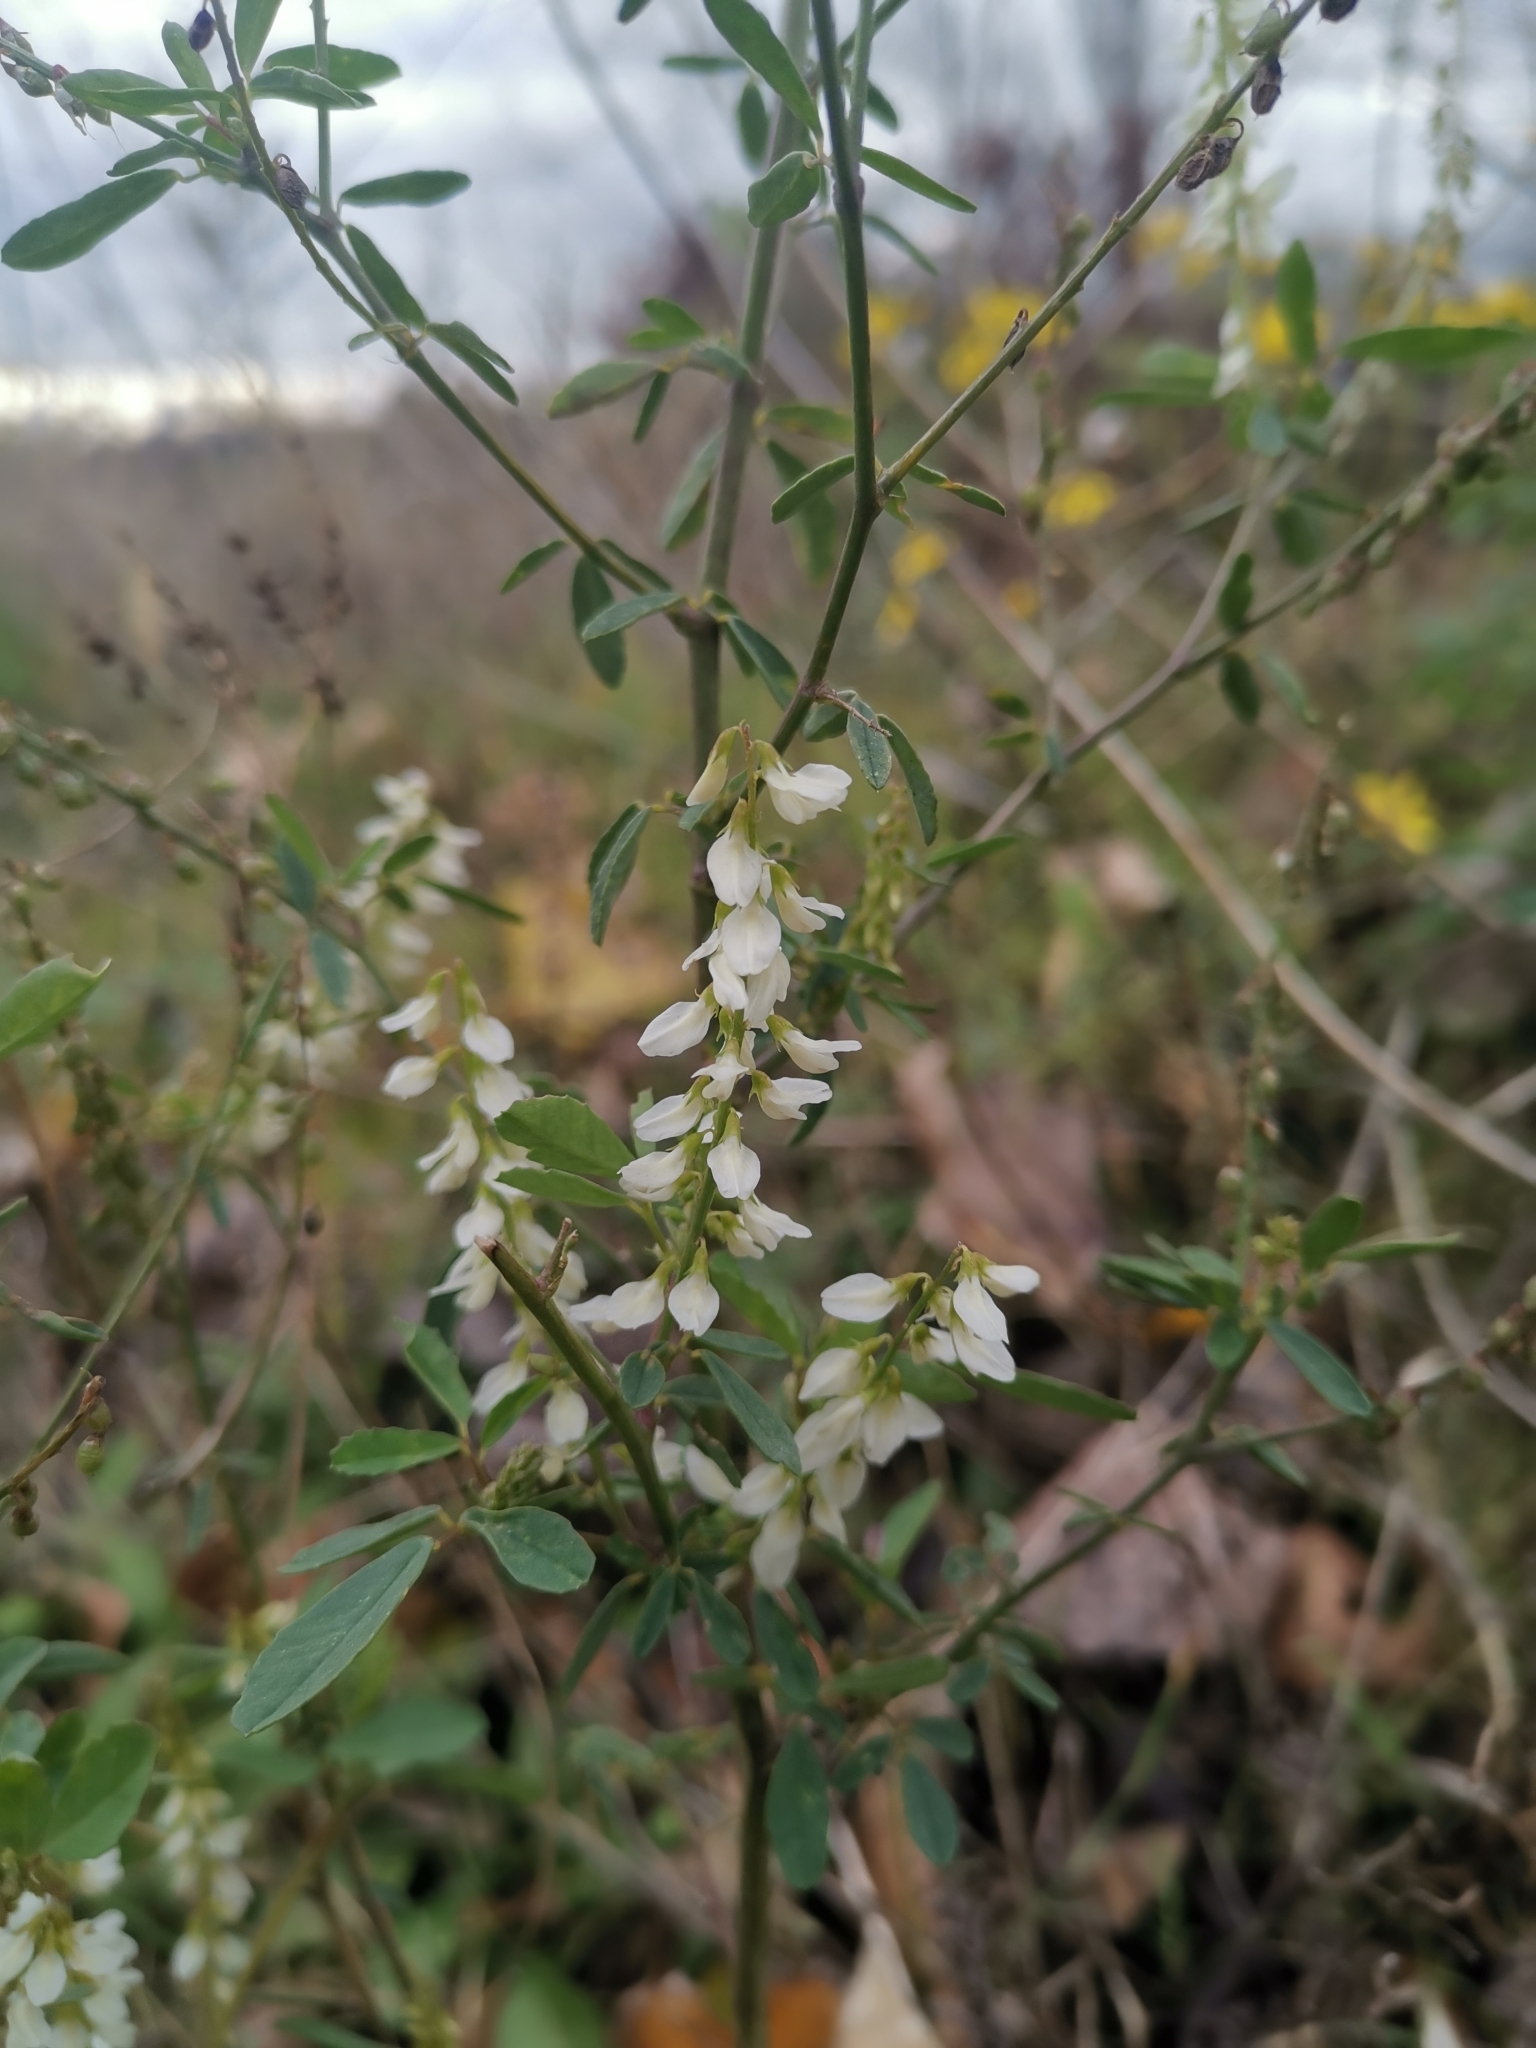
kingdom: Plantae
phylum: Tracheophyta
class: Magnoliopsida
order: Fabales
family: Fabaceae
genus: Melilotus
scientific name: Melilotus albus
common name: White melilot
